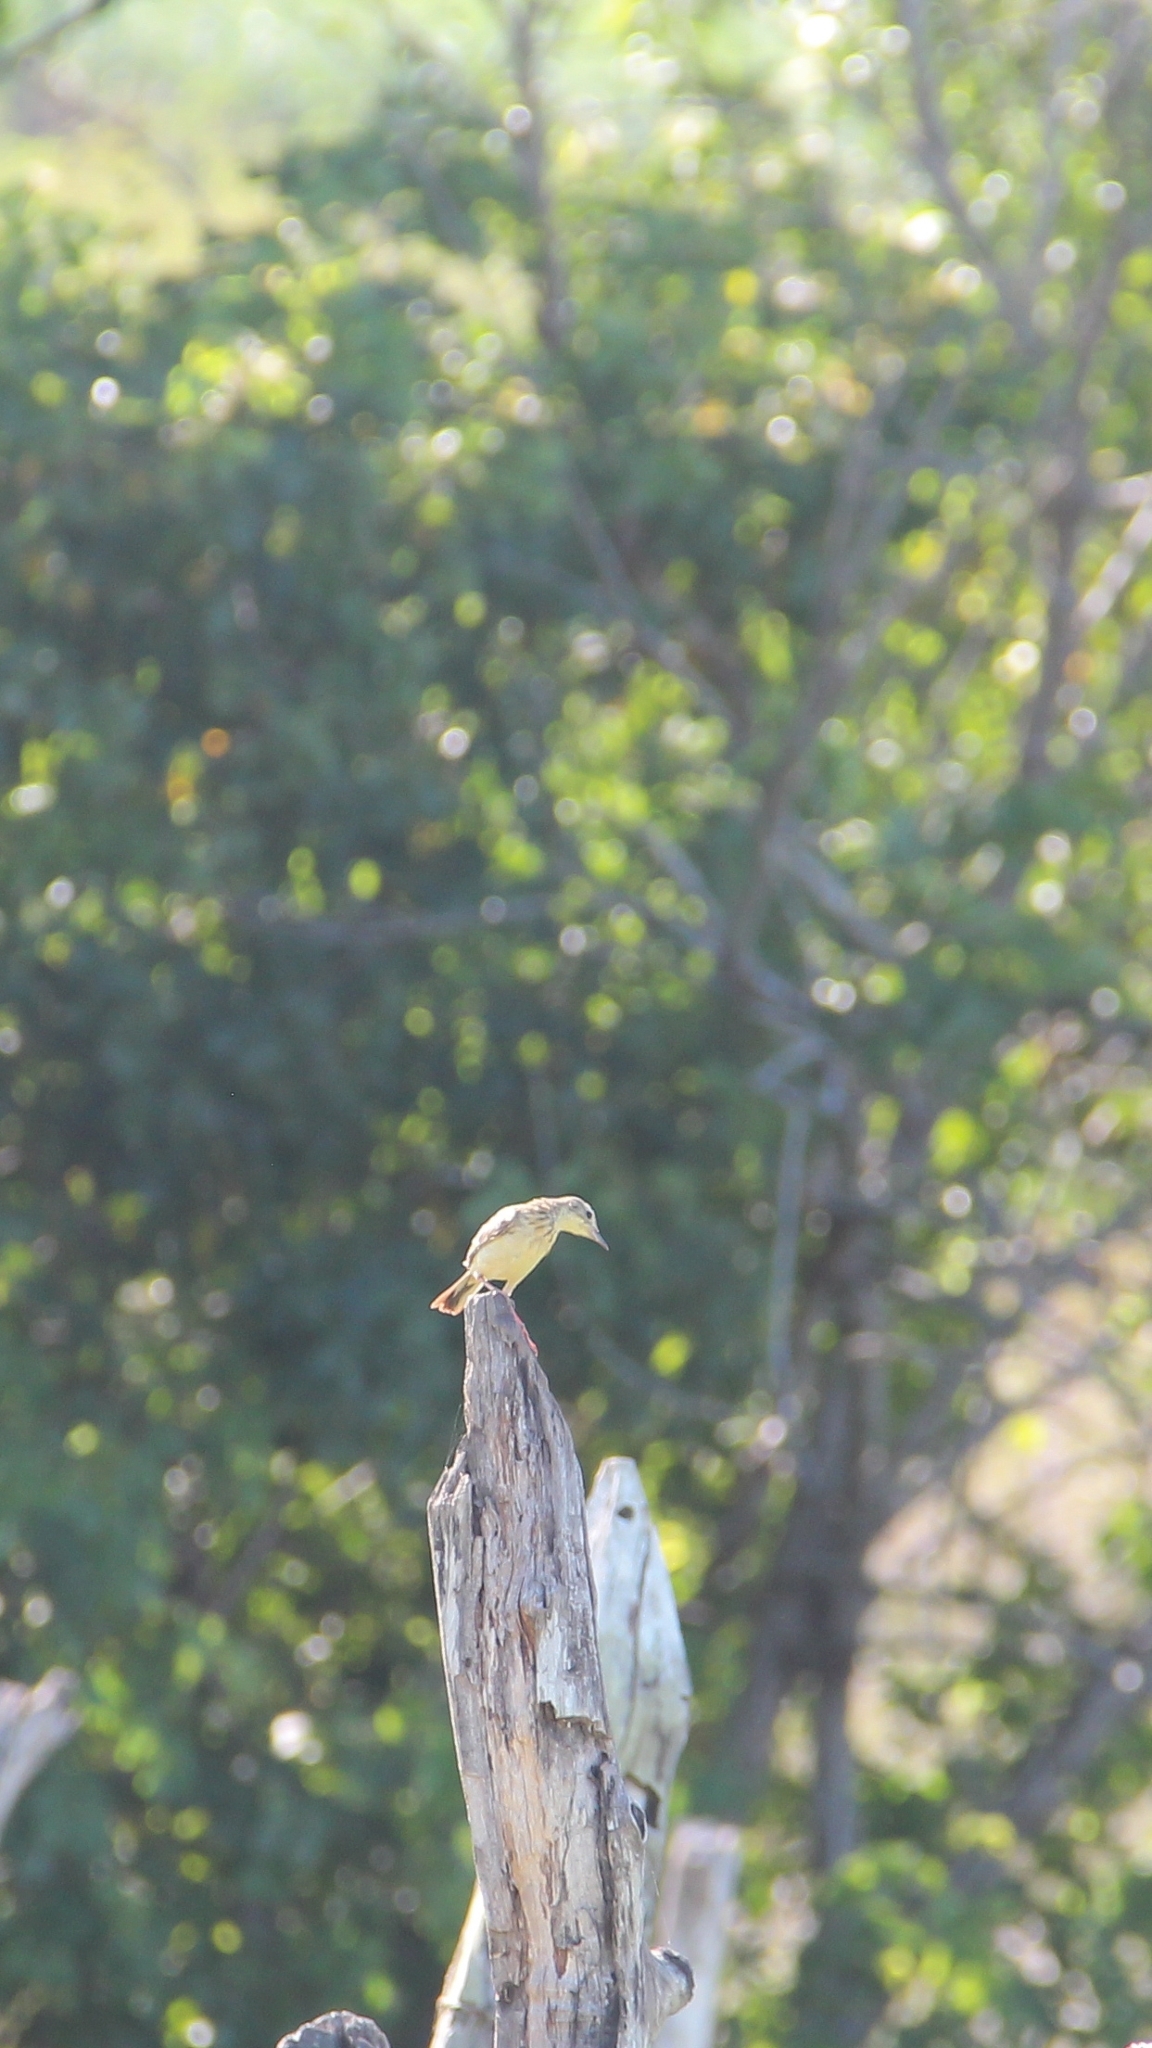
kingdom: Animalia
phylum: Chordata
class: Aves
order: Passeriformes
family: Motacillidae
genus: Anthus
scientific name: Anthus chii
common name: Yellowish pipit
